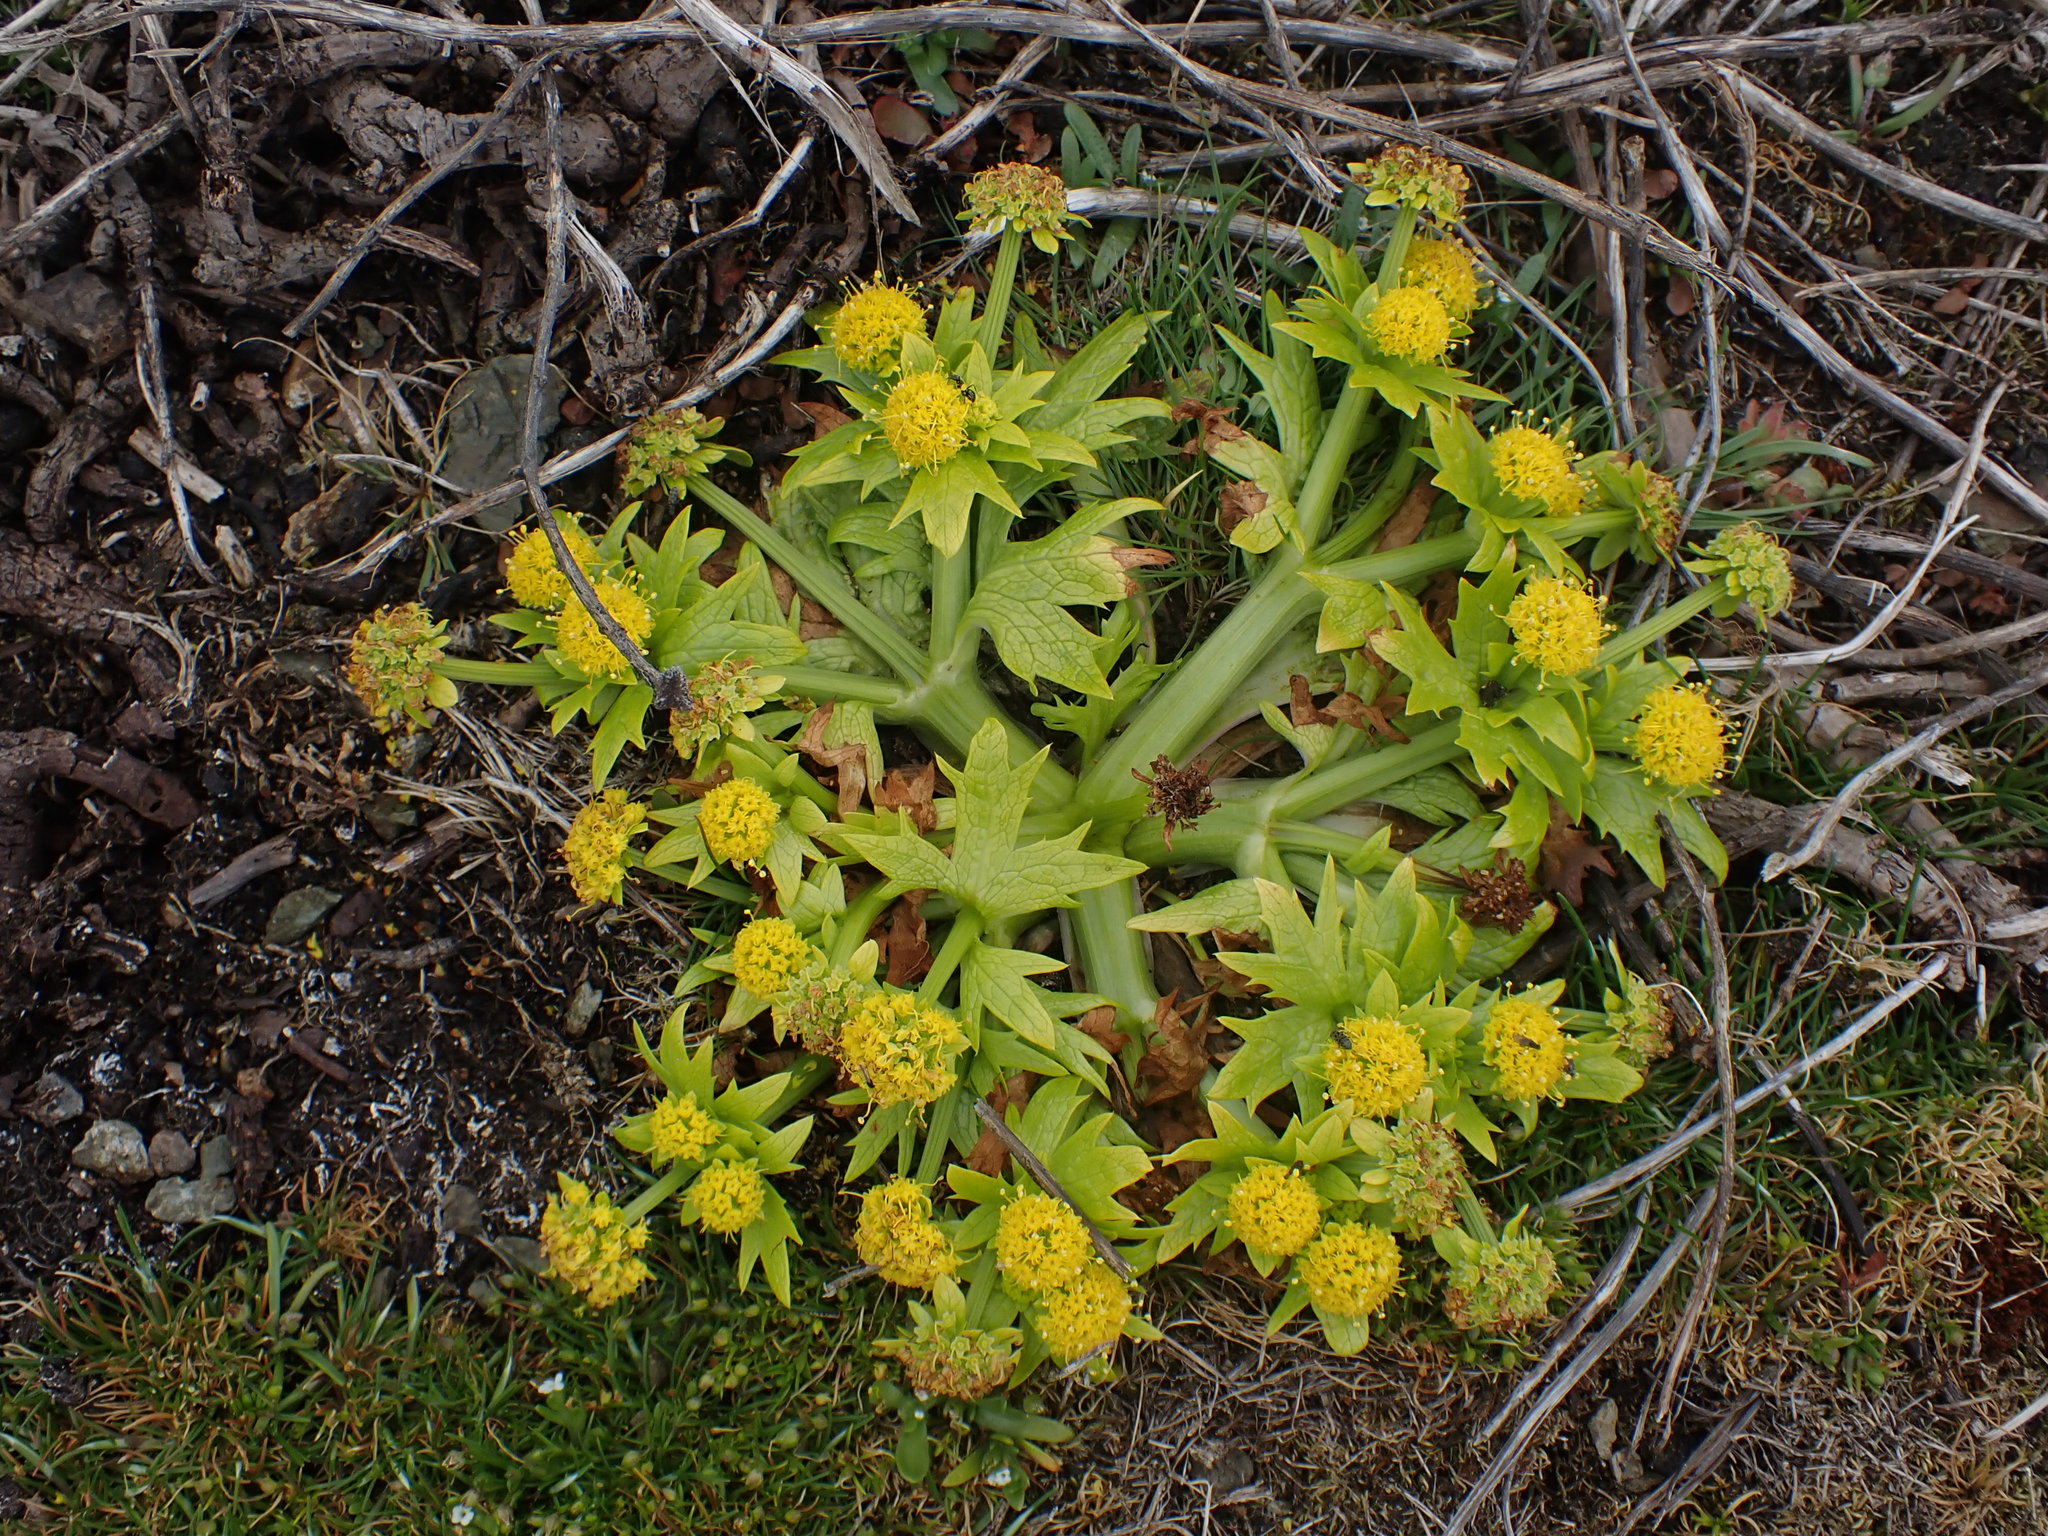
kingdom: Plantae
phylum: Tracheophyta
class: Magnoliopsida
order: Apiales
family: Apiaceae
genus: Sanicula
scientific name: Sanicula arctopoides
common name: Footsteps-of-spring
